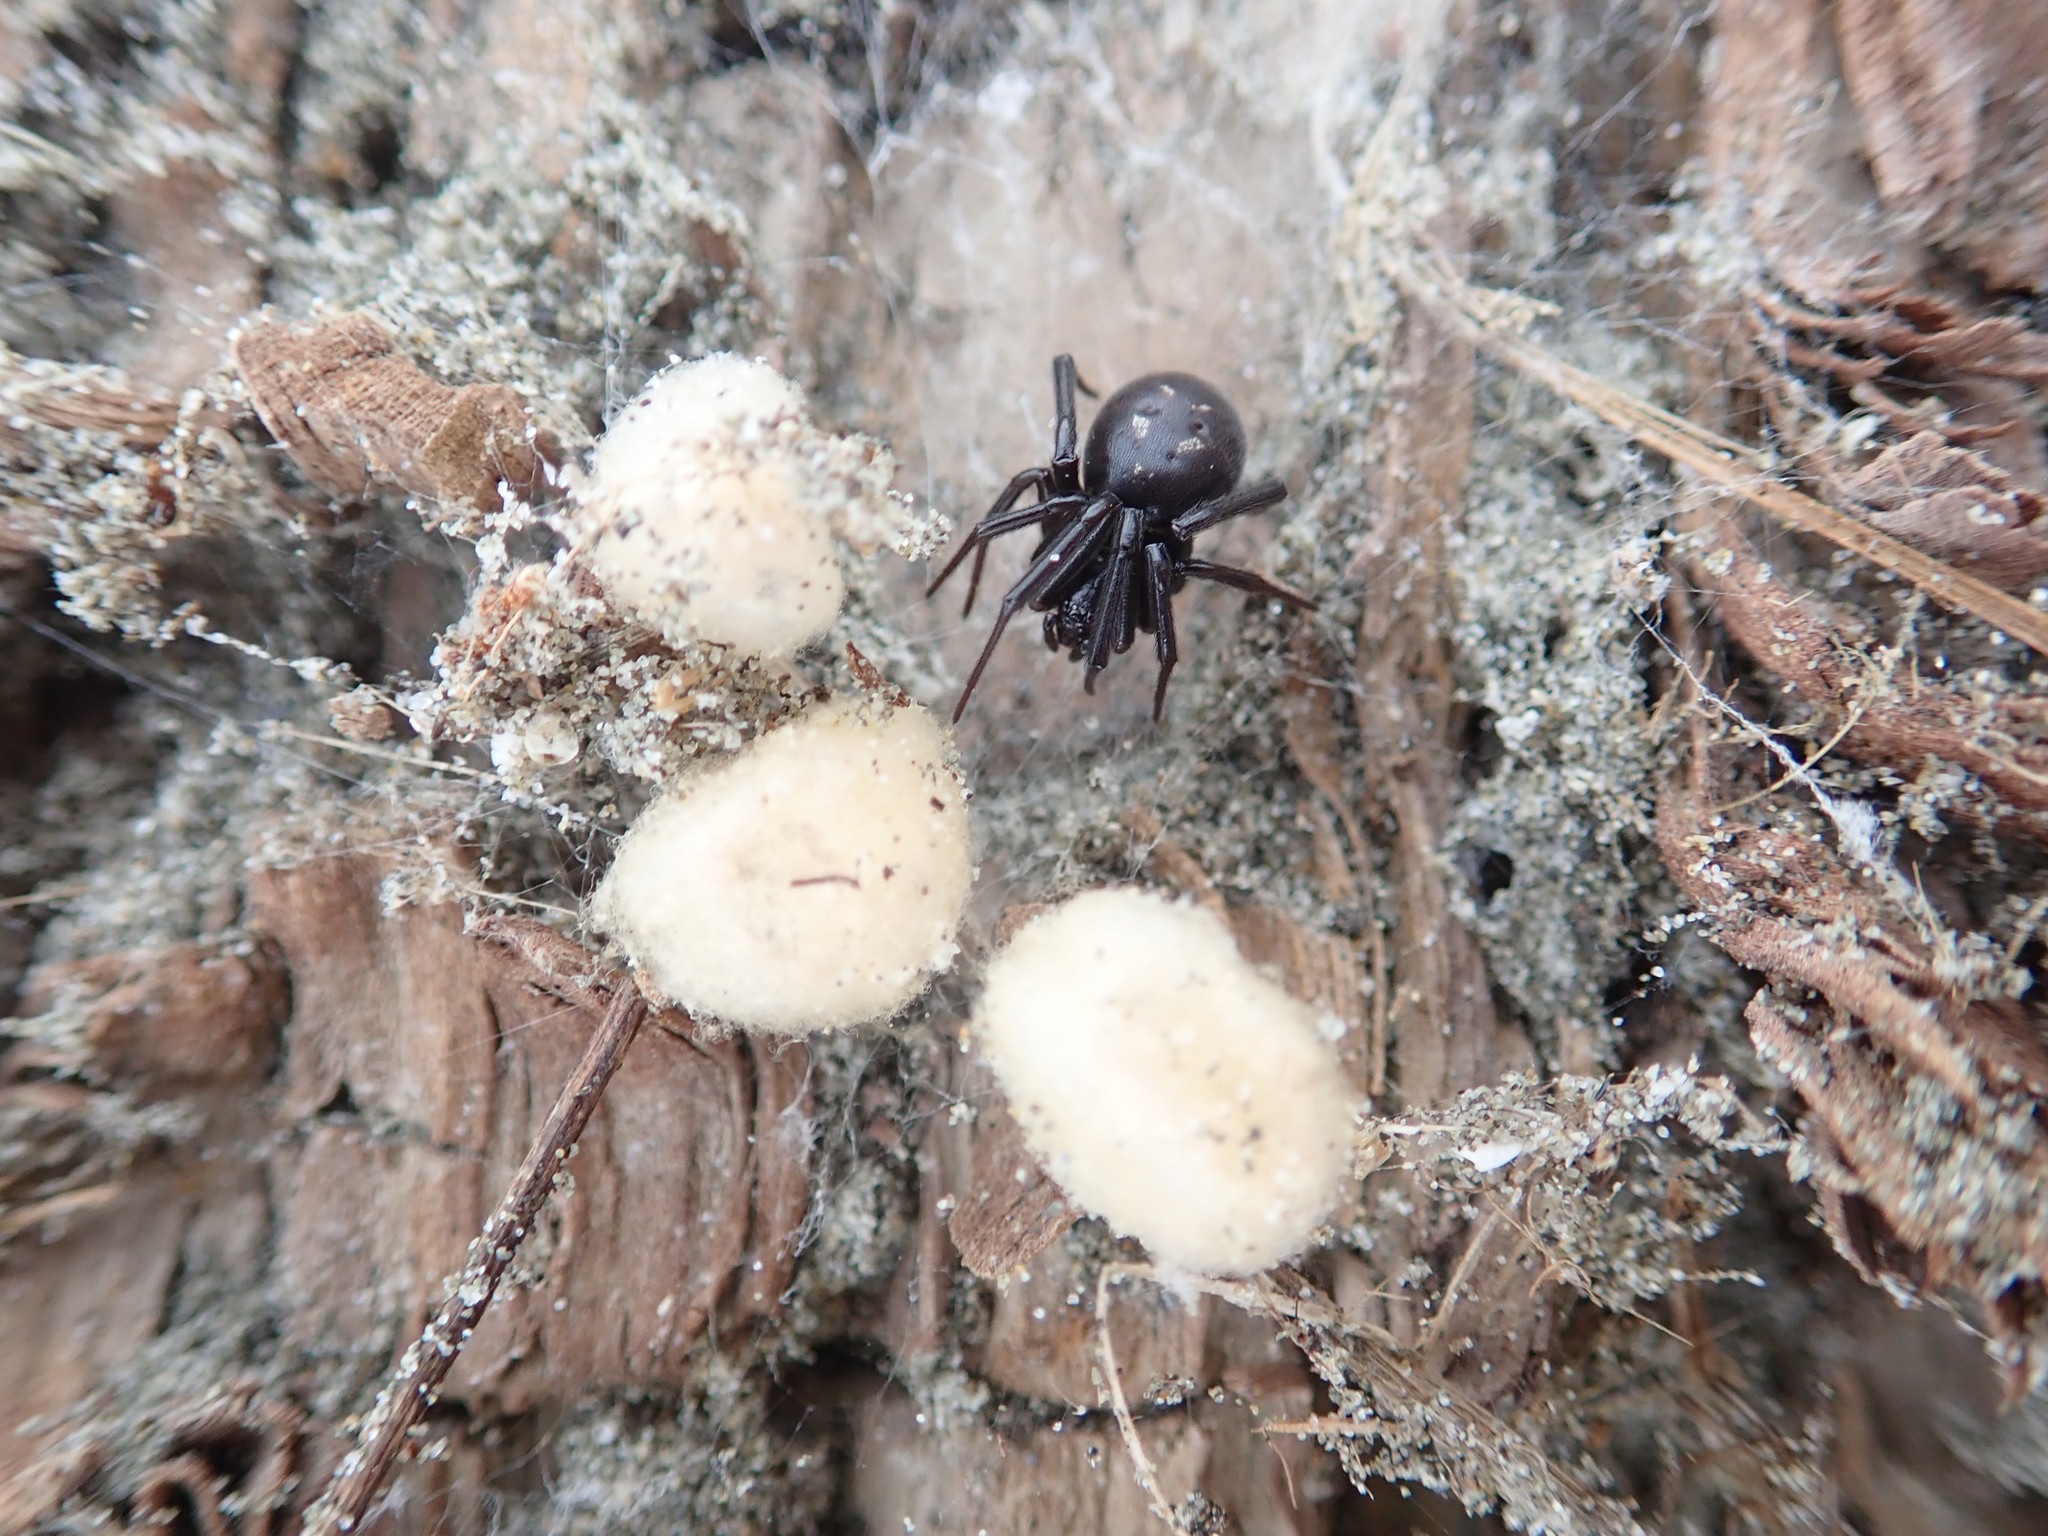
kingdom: Animalia
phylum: Arthropoda
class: Arachnida
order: Araneae
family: Theridiidae
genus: Steatoda
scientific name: Steatoda capensis
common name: Cobweb weaver
